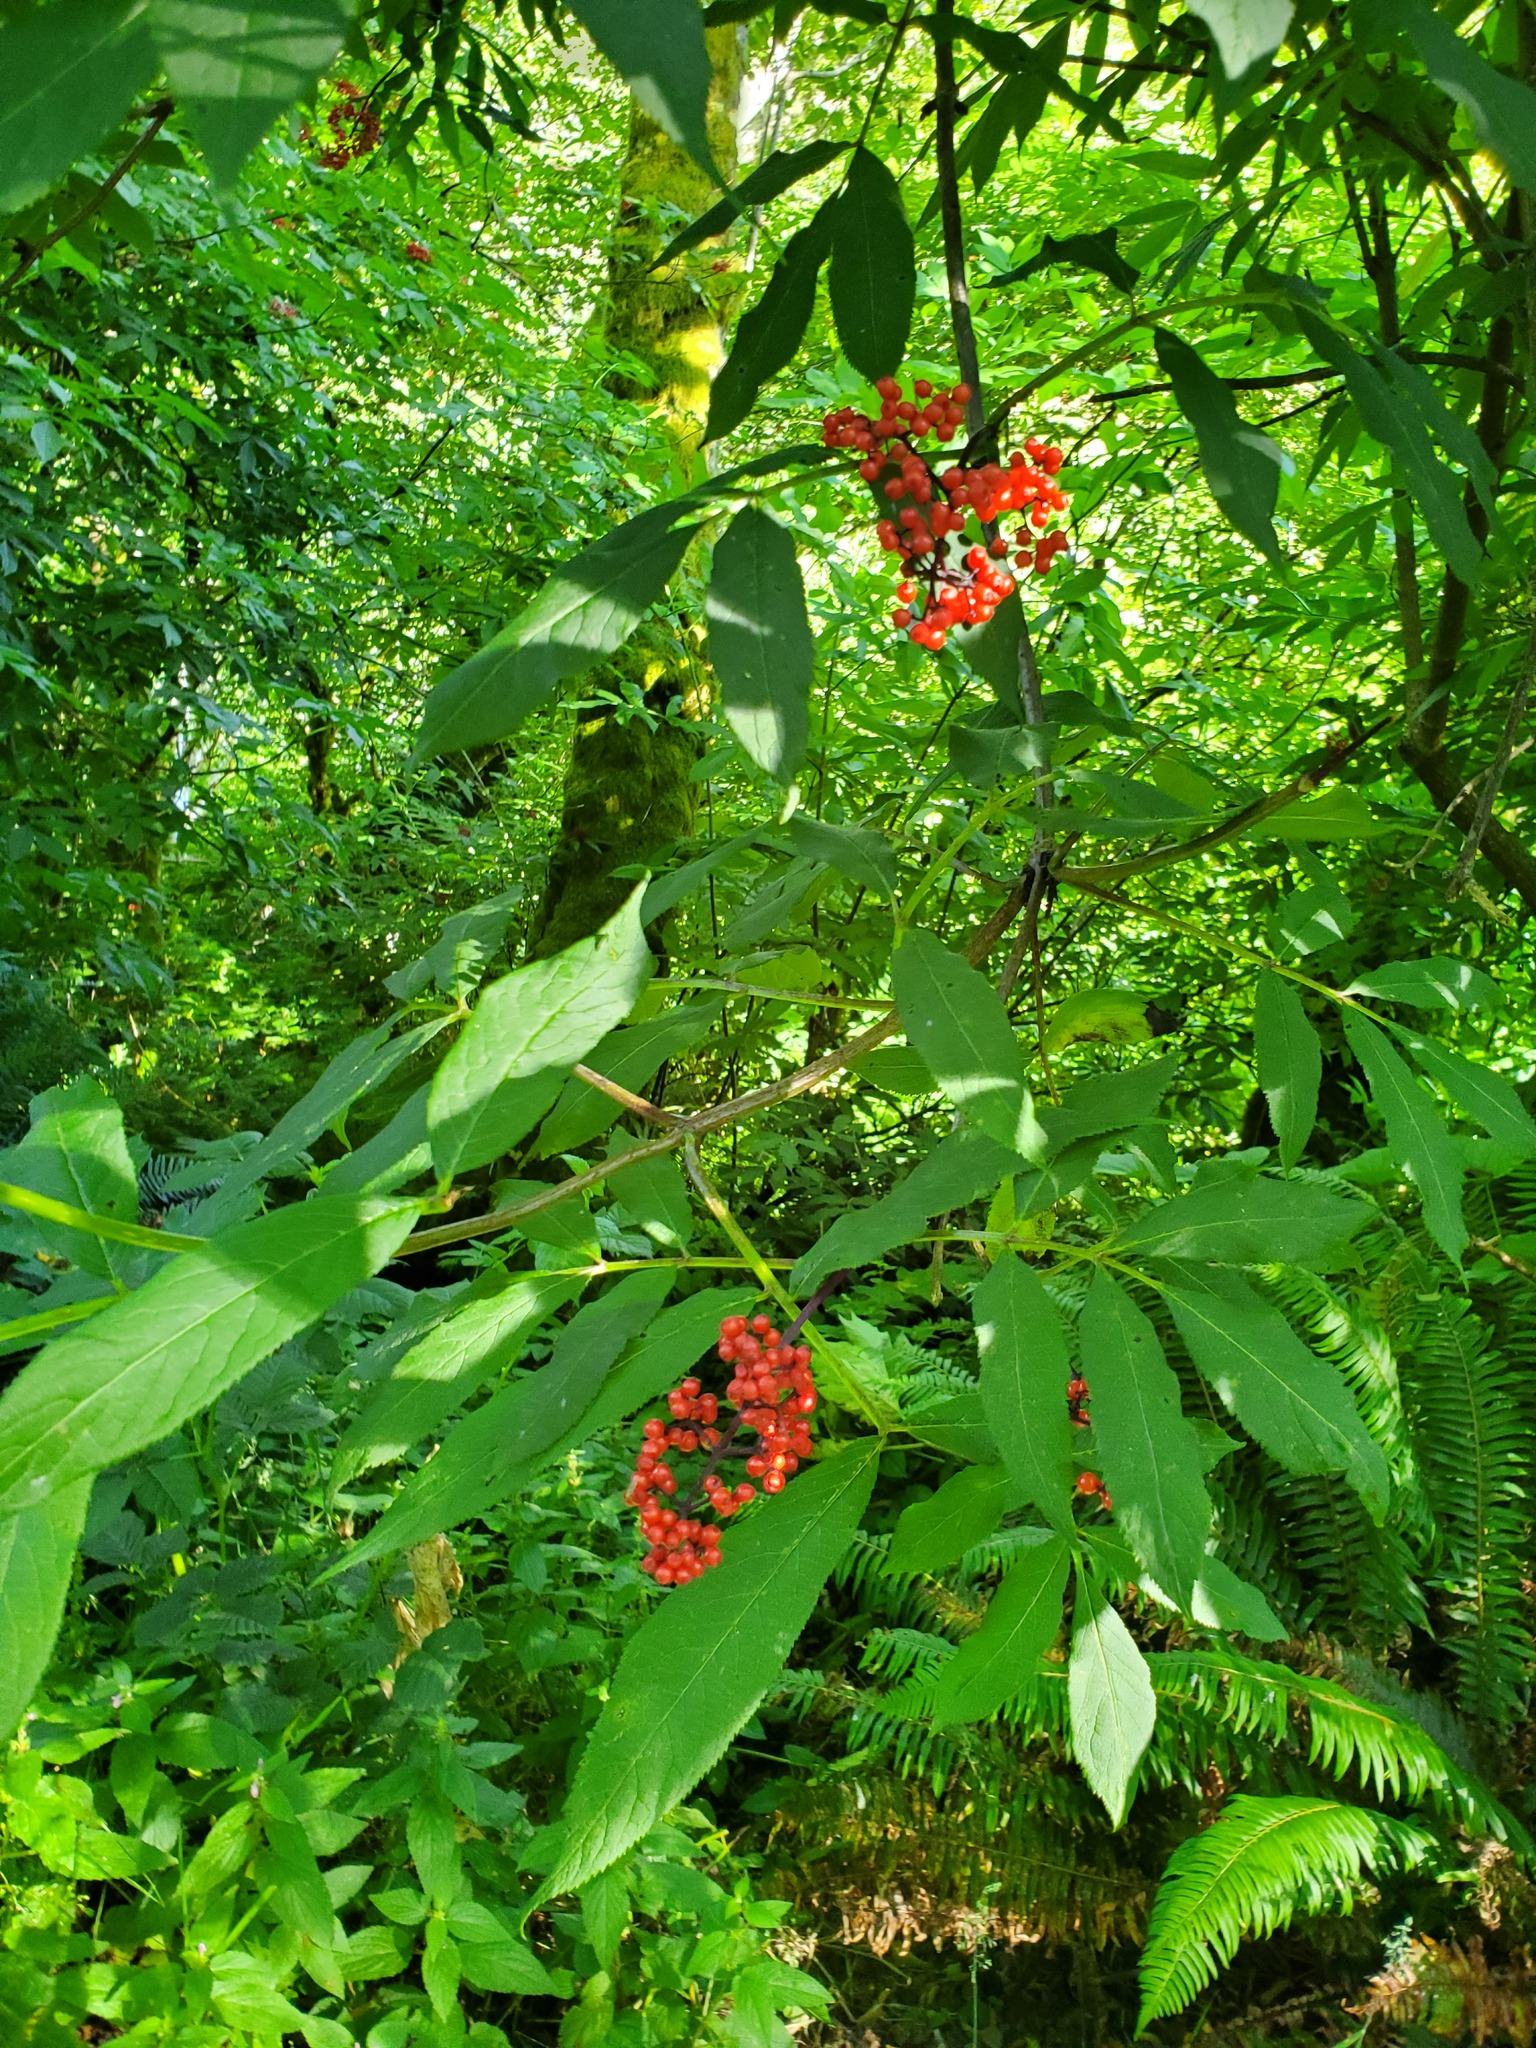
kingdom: Plantae
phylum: Tracheophyta
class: Magnoliopsida
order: Dipsacales
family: Viburnaceae
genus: Sambucus
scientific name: Sambucus racemosa
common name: Red-berried elder
